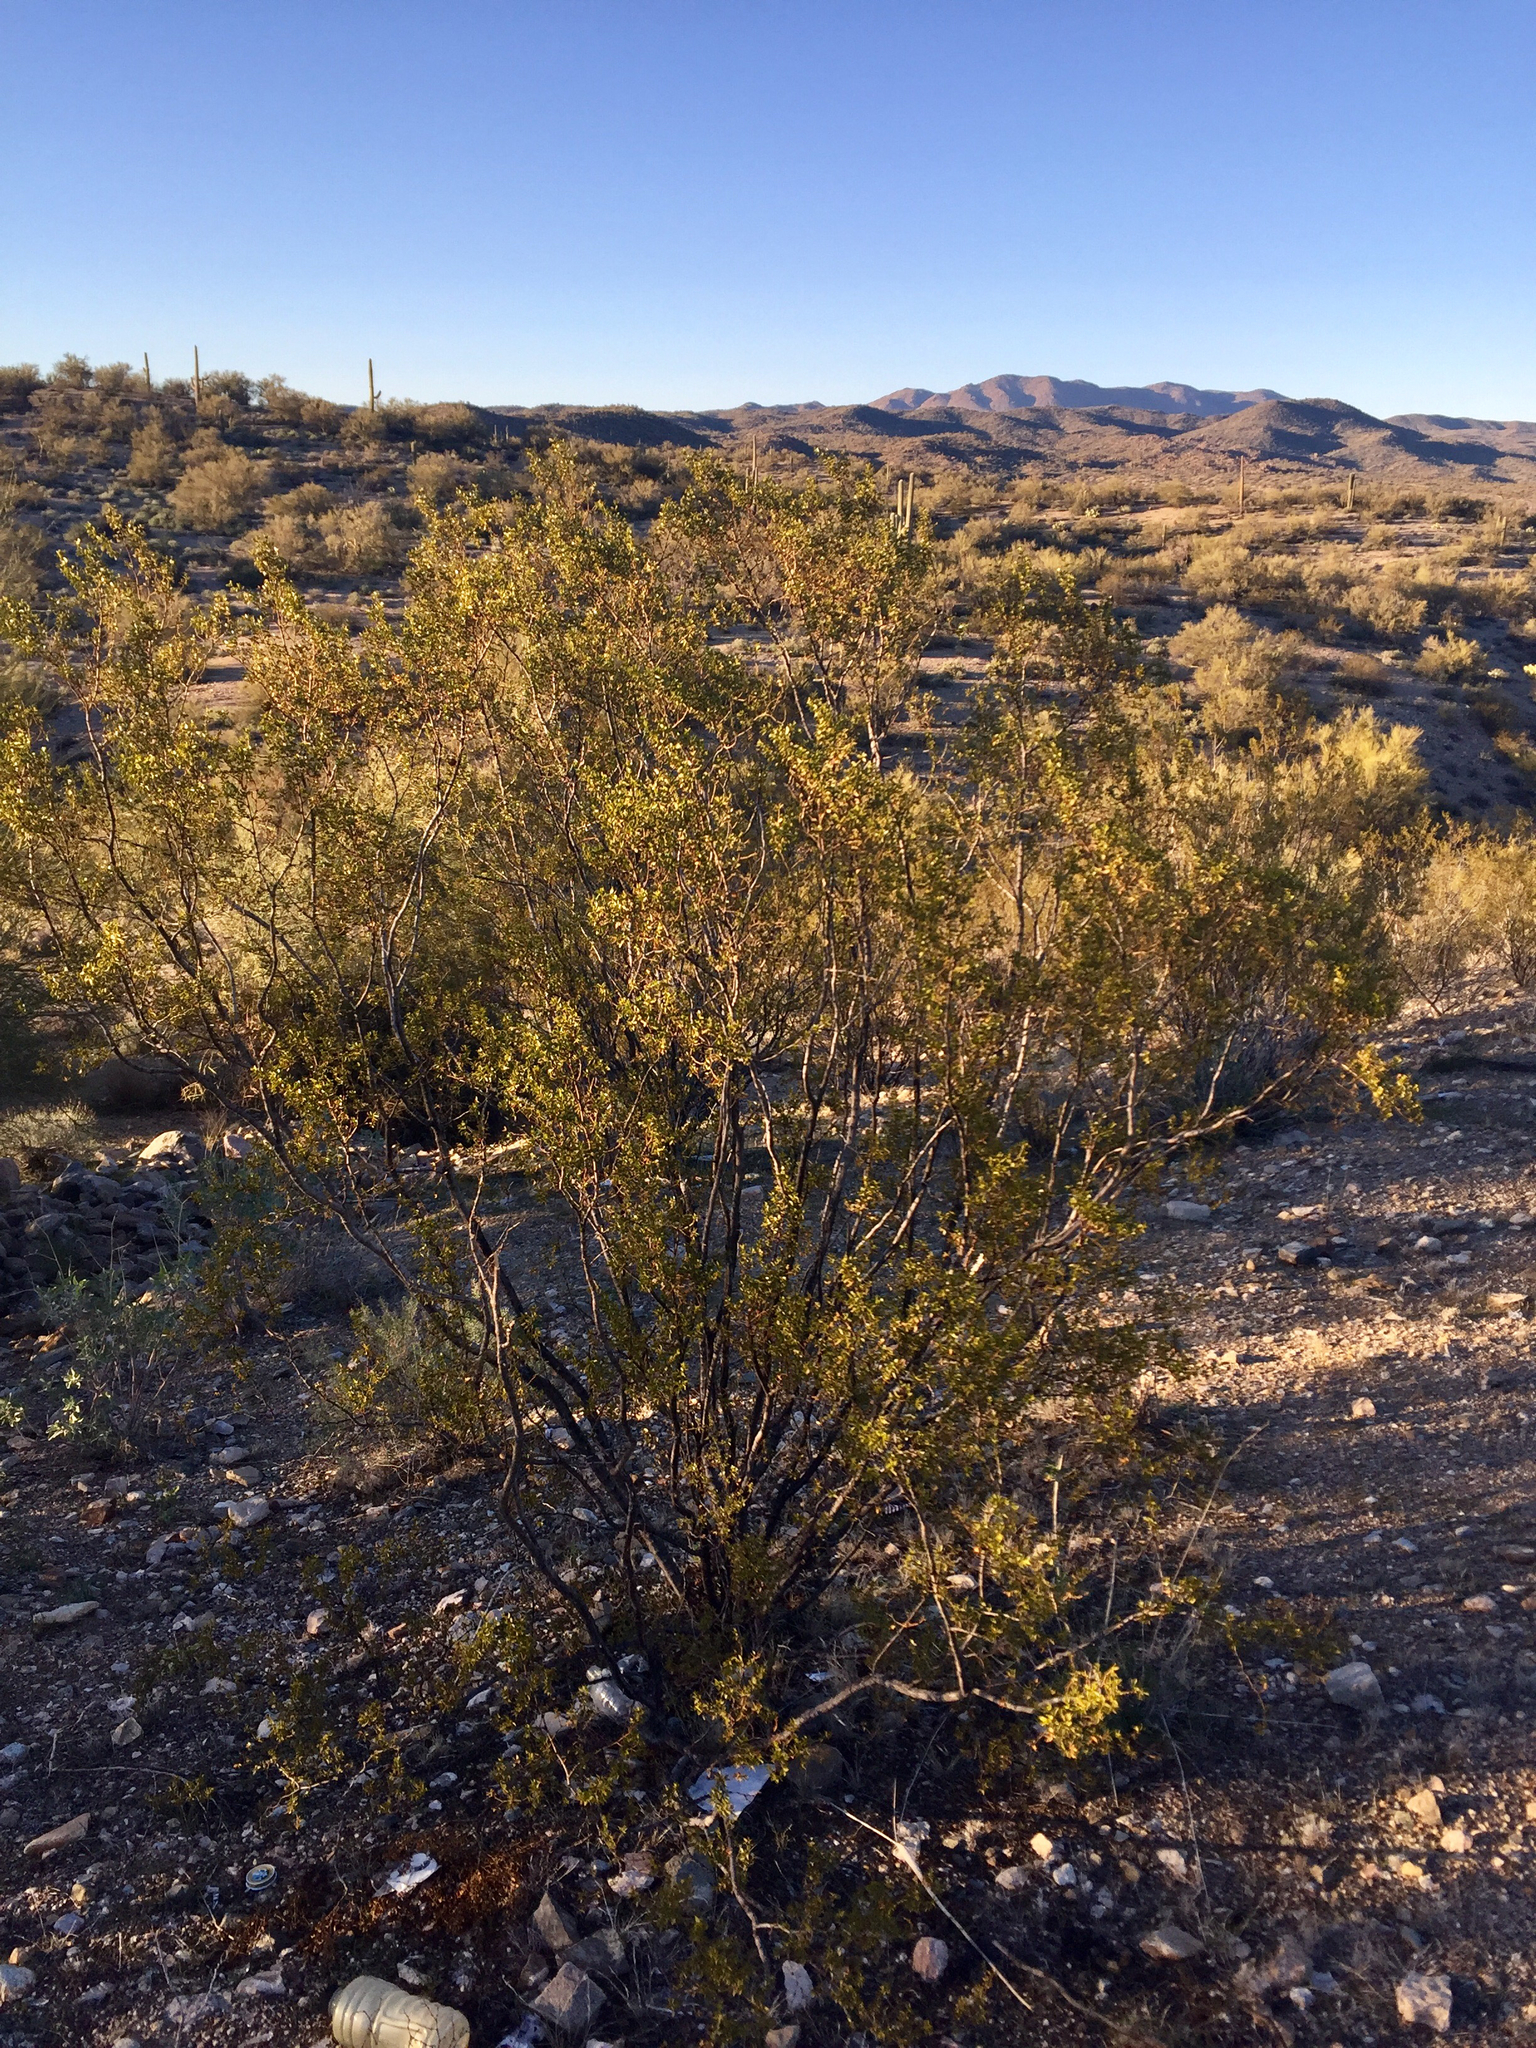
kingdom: Plantae
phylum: Tracheophyta
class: Magnoliopsida
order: Zygophyllales
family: Zygophyllaceae
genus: Larrea
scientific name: Larrea tridentata
